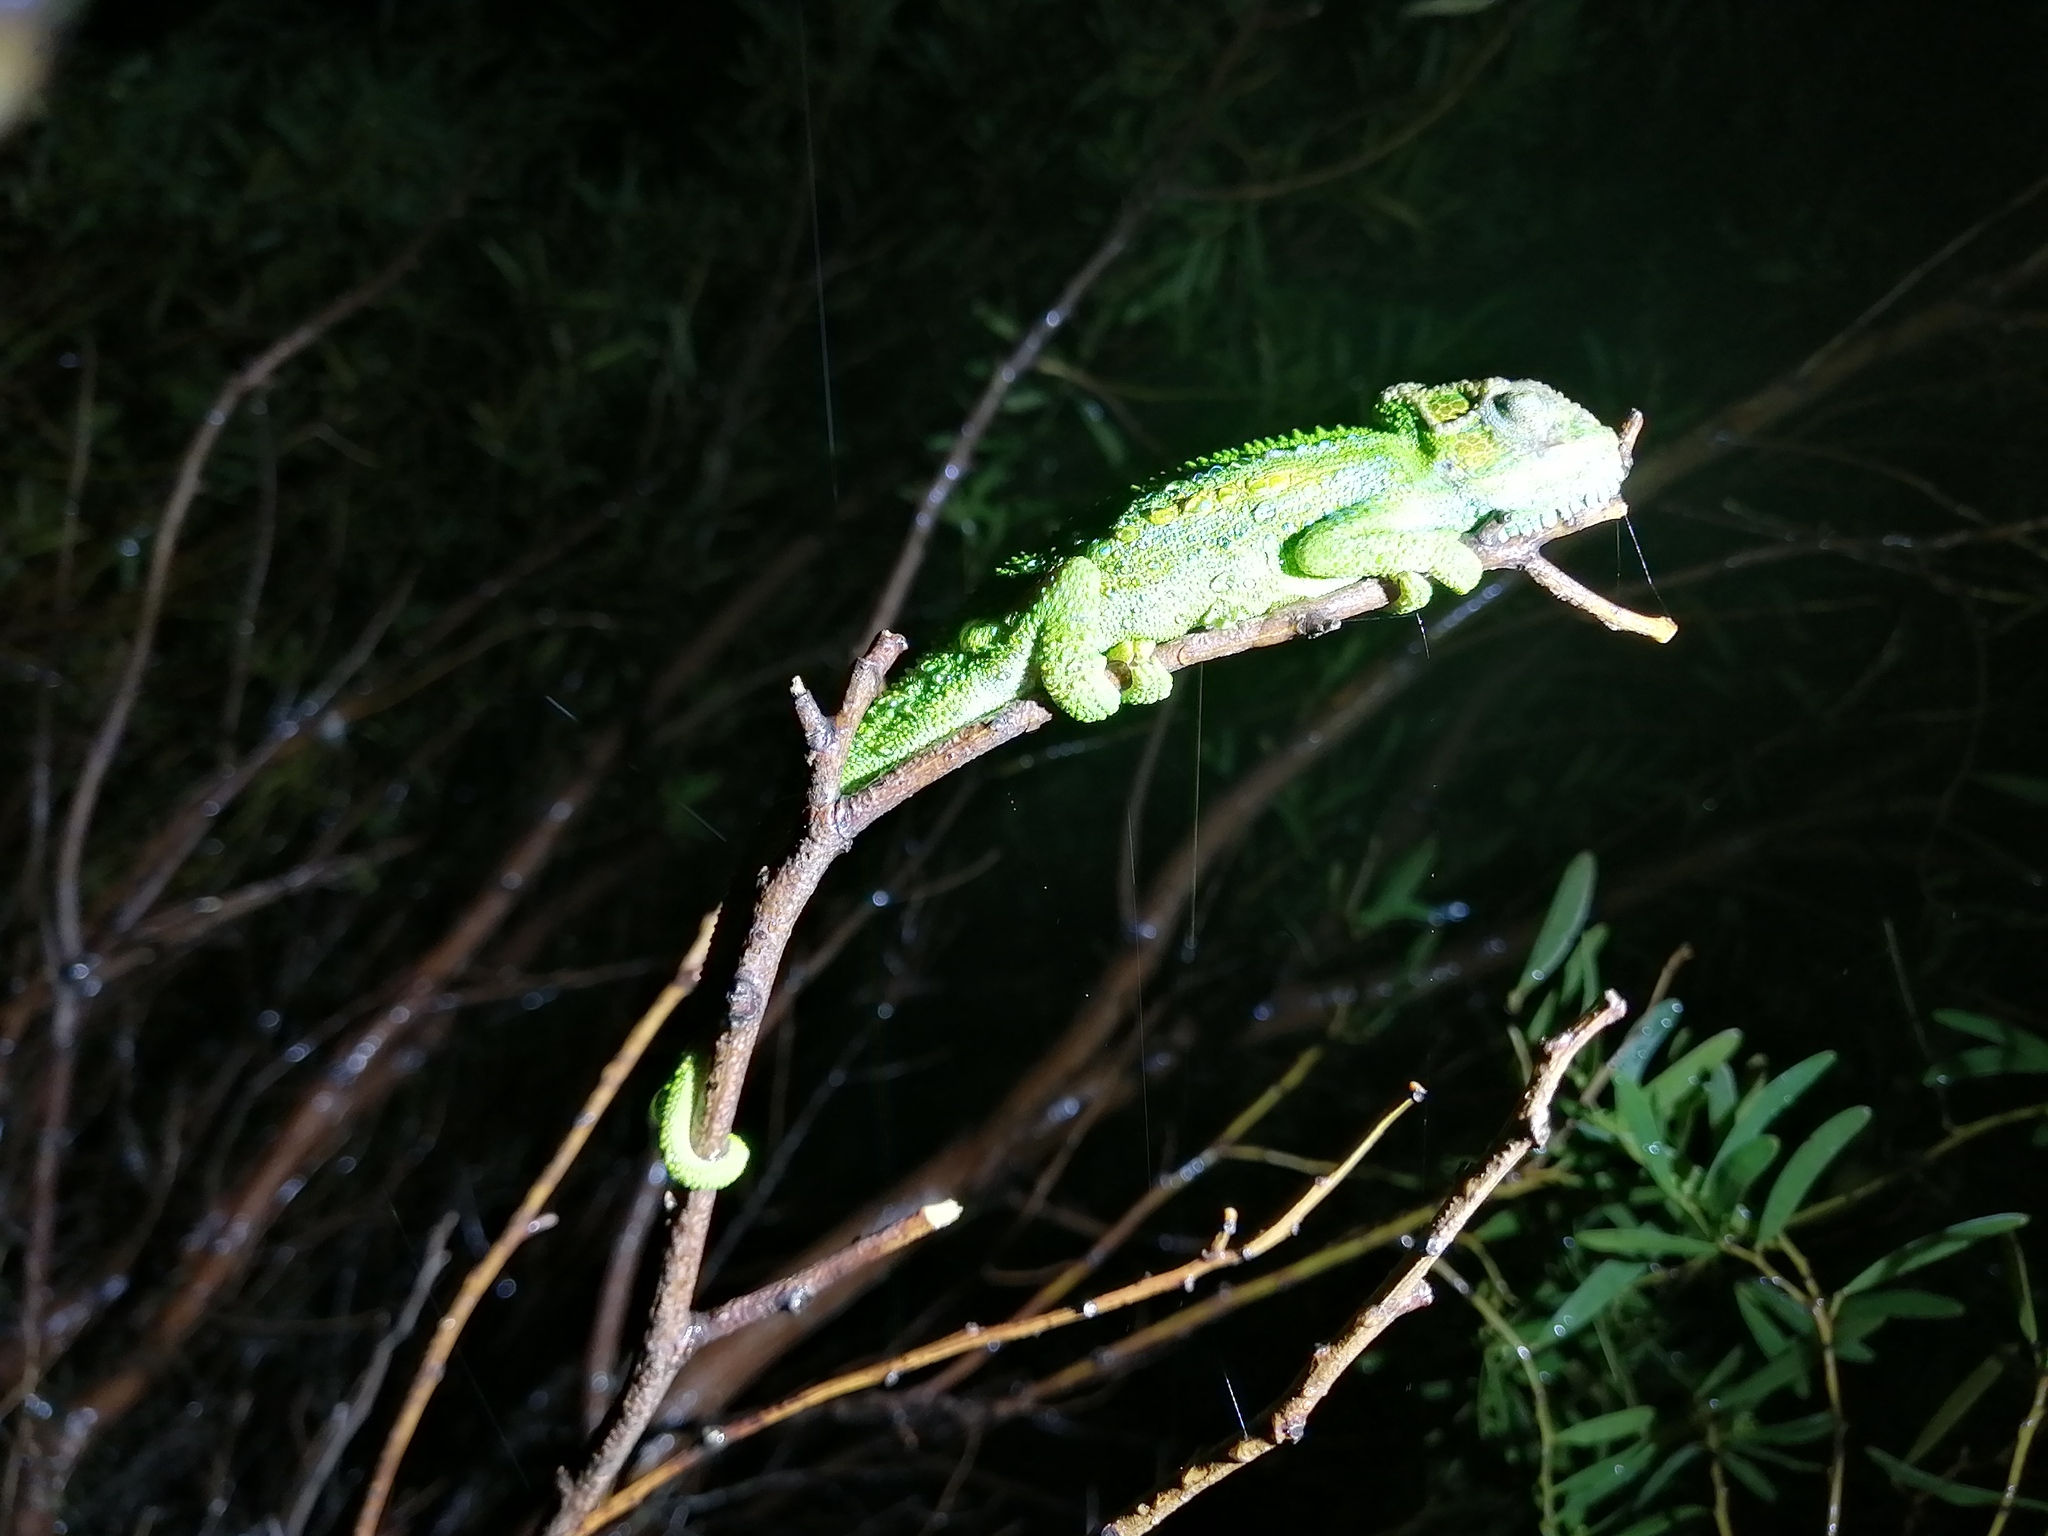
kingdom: Animalia
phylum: Chordata
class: Squamata
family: Chamaeleonidae
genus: Bradypodion
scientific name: Bradypodion pumilum
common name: Cape dwarf chameleon
